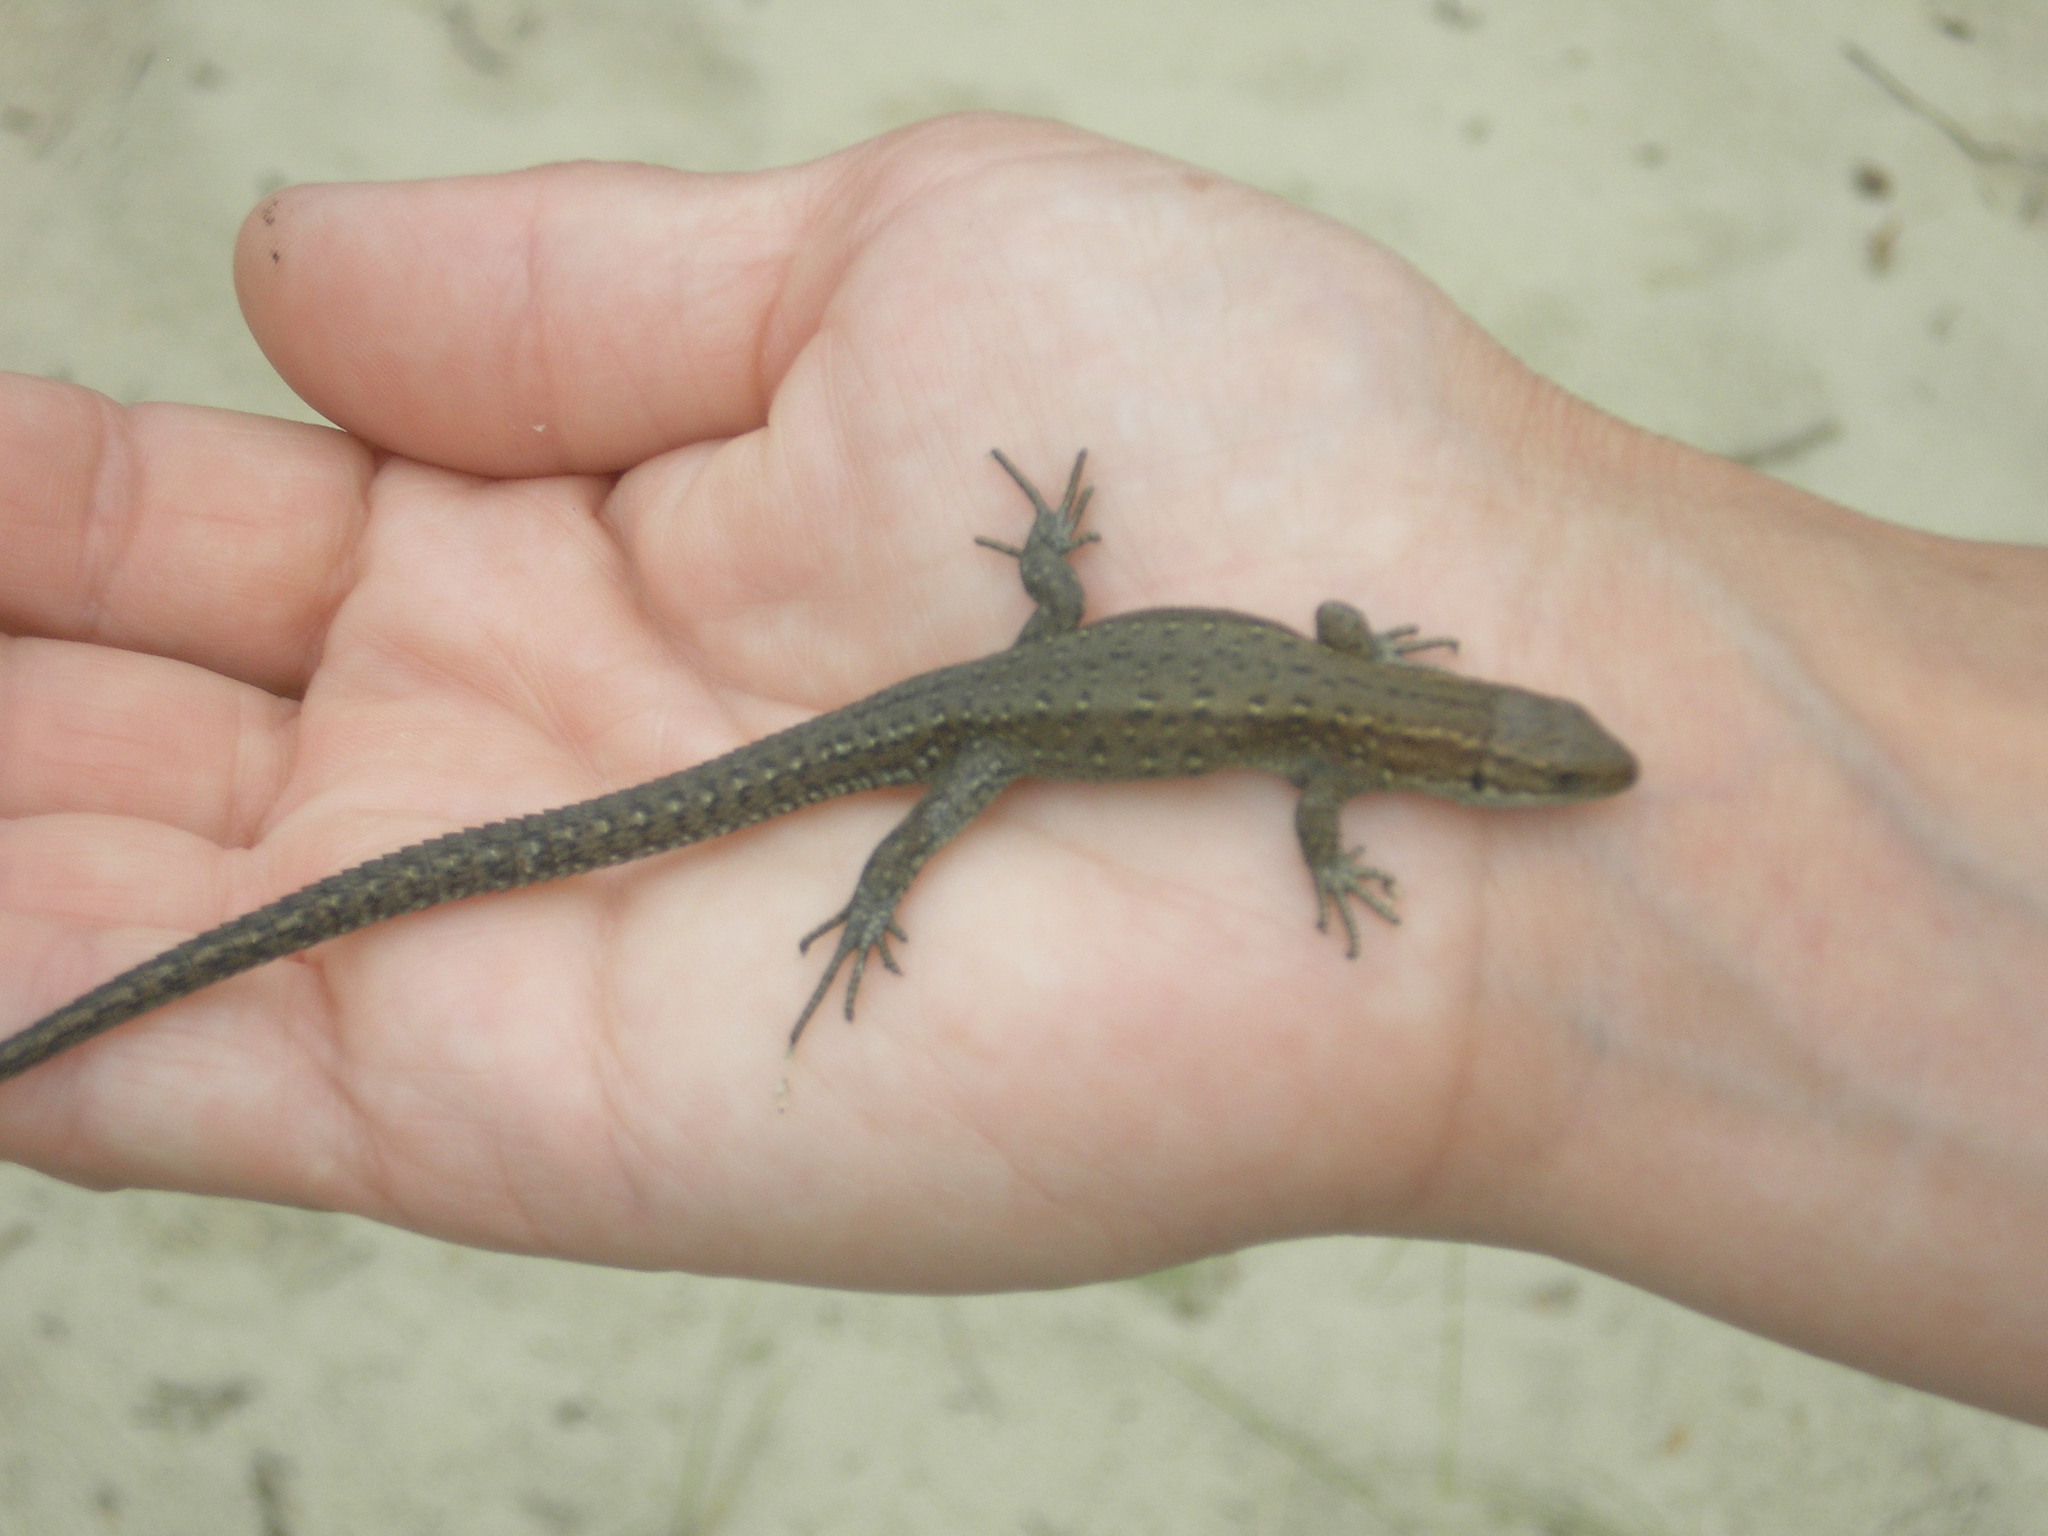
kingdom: Animalia
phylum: Chordata
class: Squamata
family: Lacertidae
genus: Zootoca
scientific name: Zootoca vivipara
